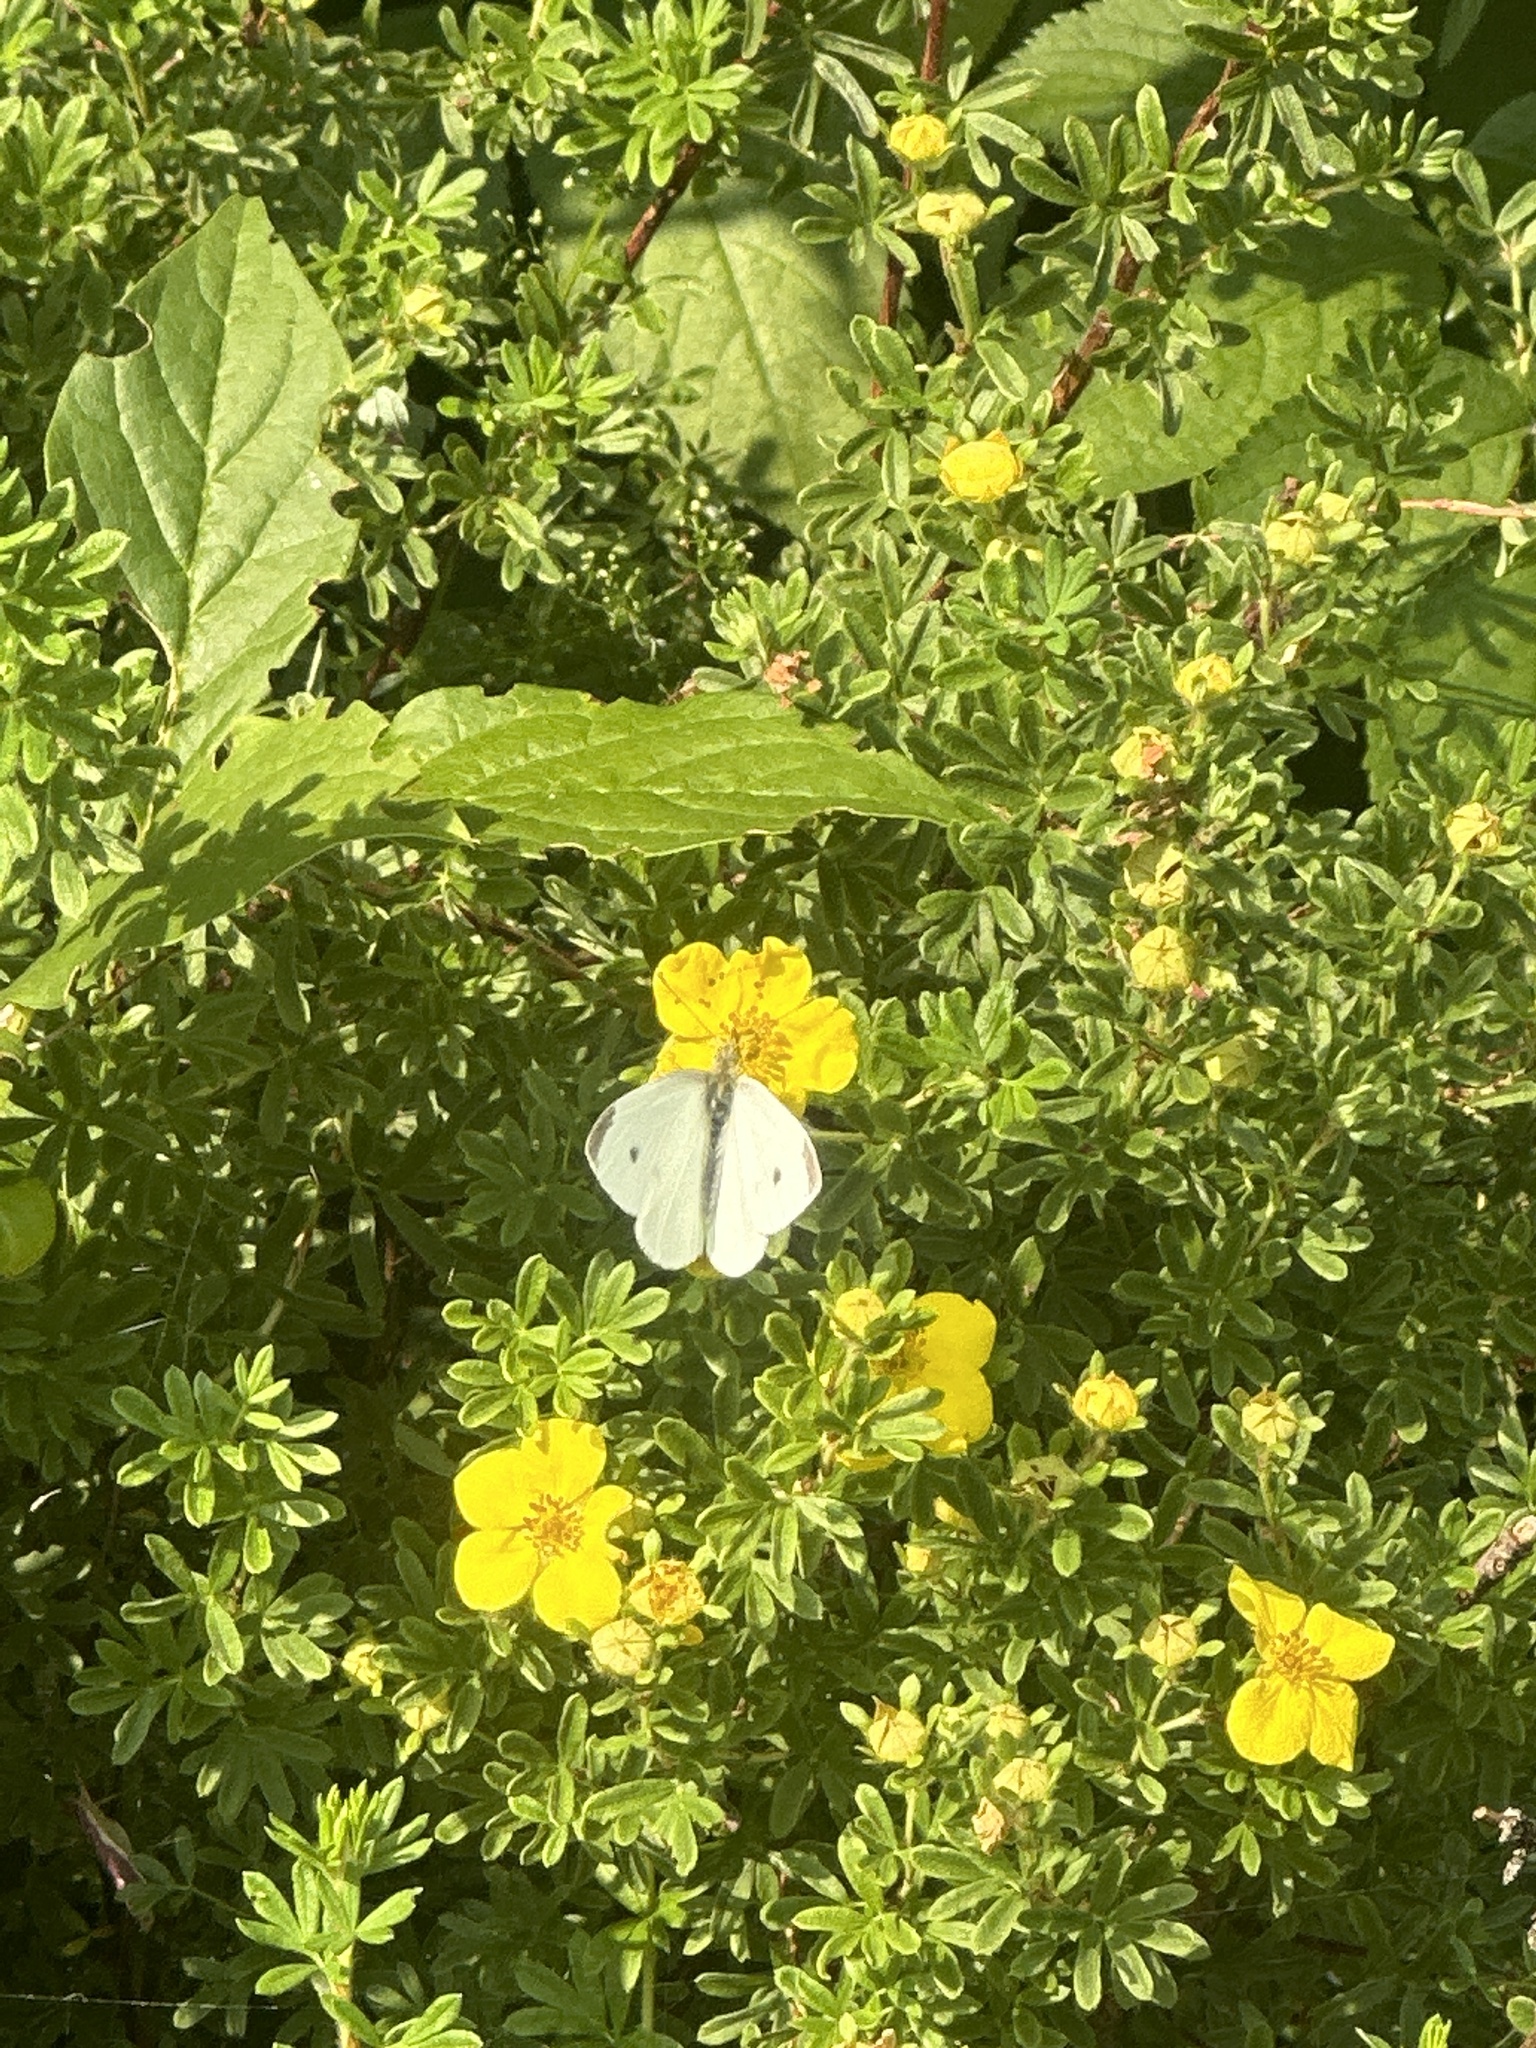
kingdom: Animalia
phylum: Arthropoda
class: Insecta
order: Lepidoptera
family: Pieridae
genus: Pieris
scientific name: Pieris rapae
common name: Small white
